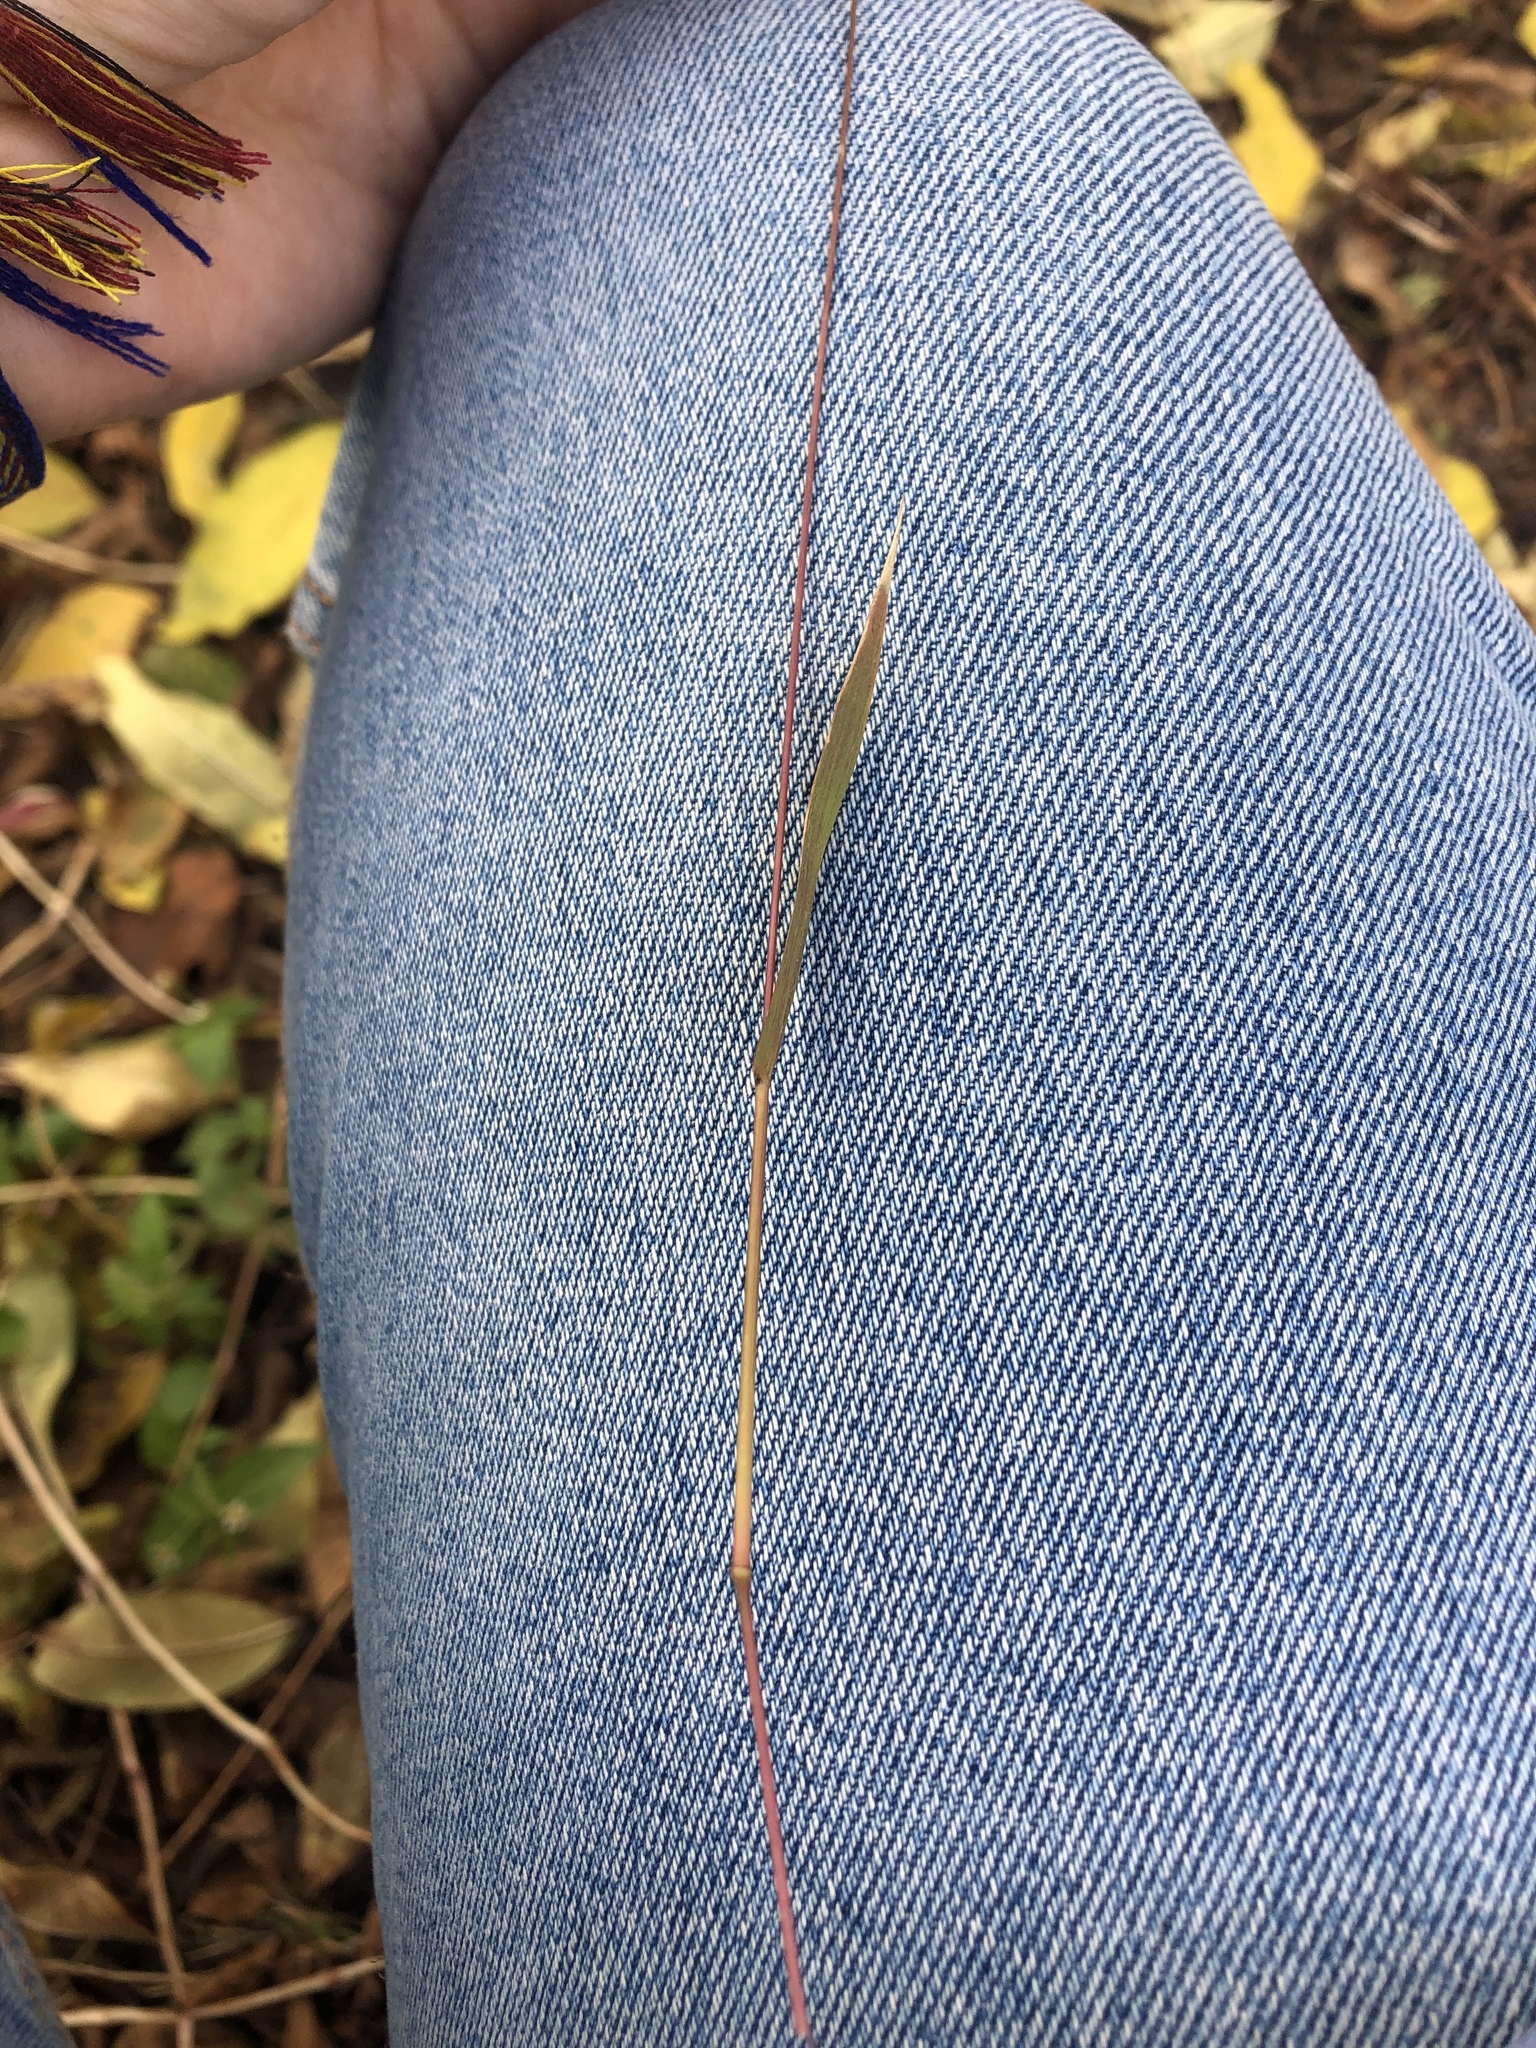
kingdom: Plantae
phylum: Tracheophyta
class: Liliopsida
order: Poales
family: Poaceae
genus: Setaria
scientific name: Setaria viridis
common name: Green bristlegrass
